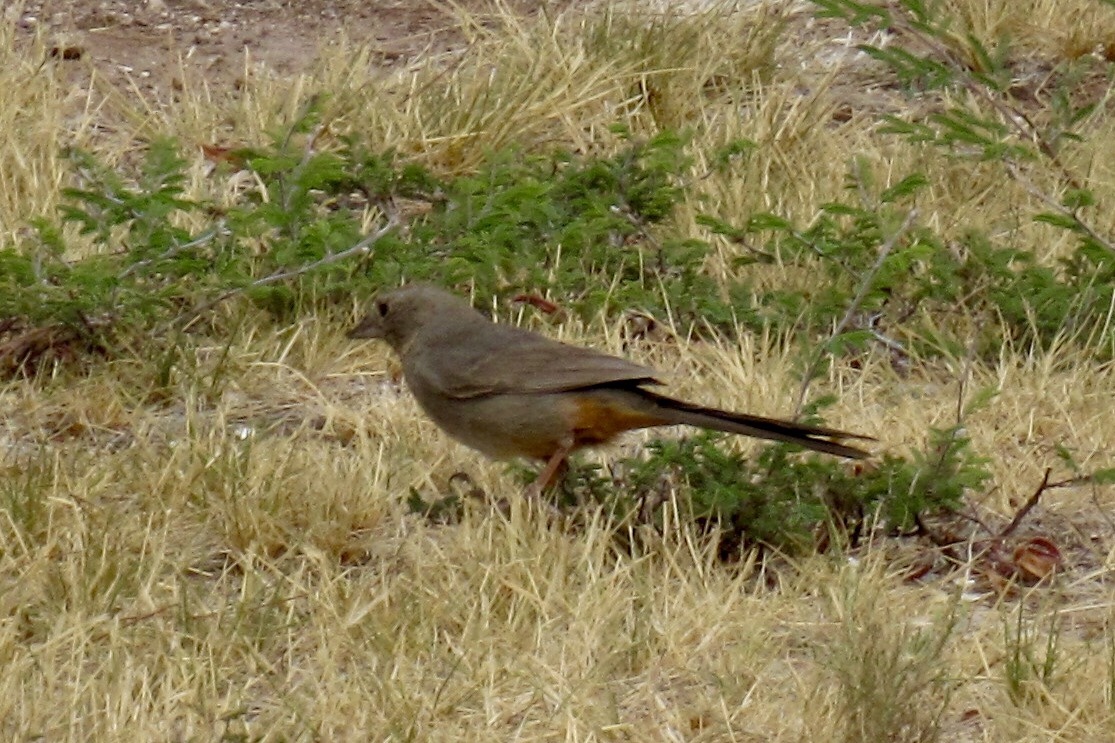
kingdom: Animalia
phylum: Chordata
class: Aves
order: Passeriformes
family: Passerellidae
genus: Melozone
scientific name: Melozone fusca
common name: Canyon towhee
